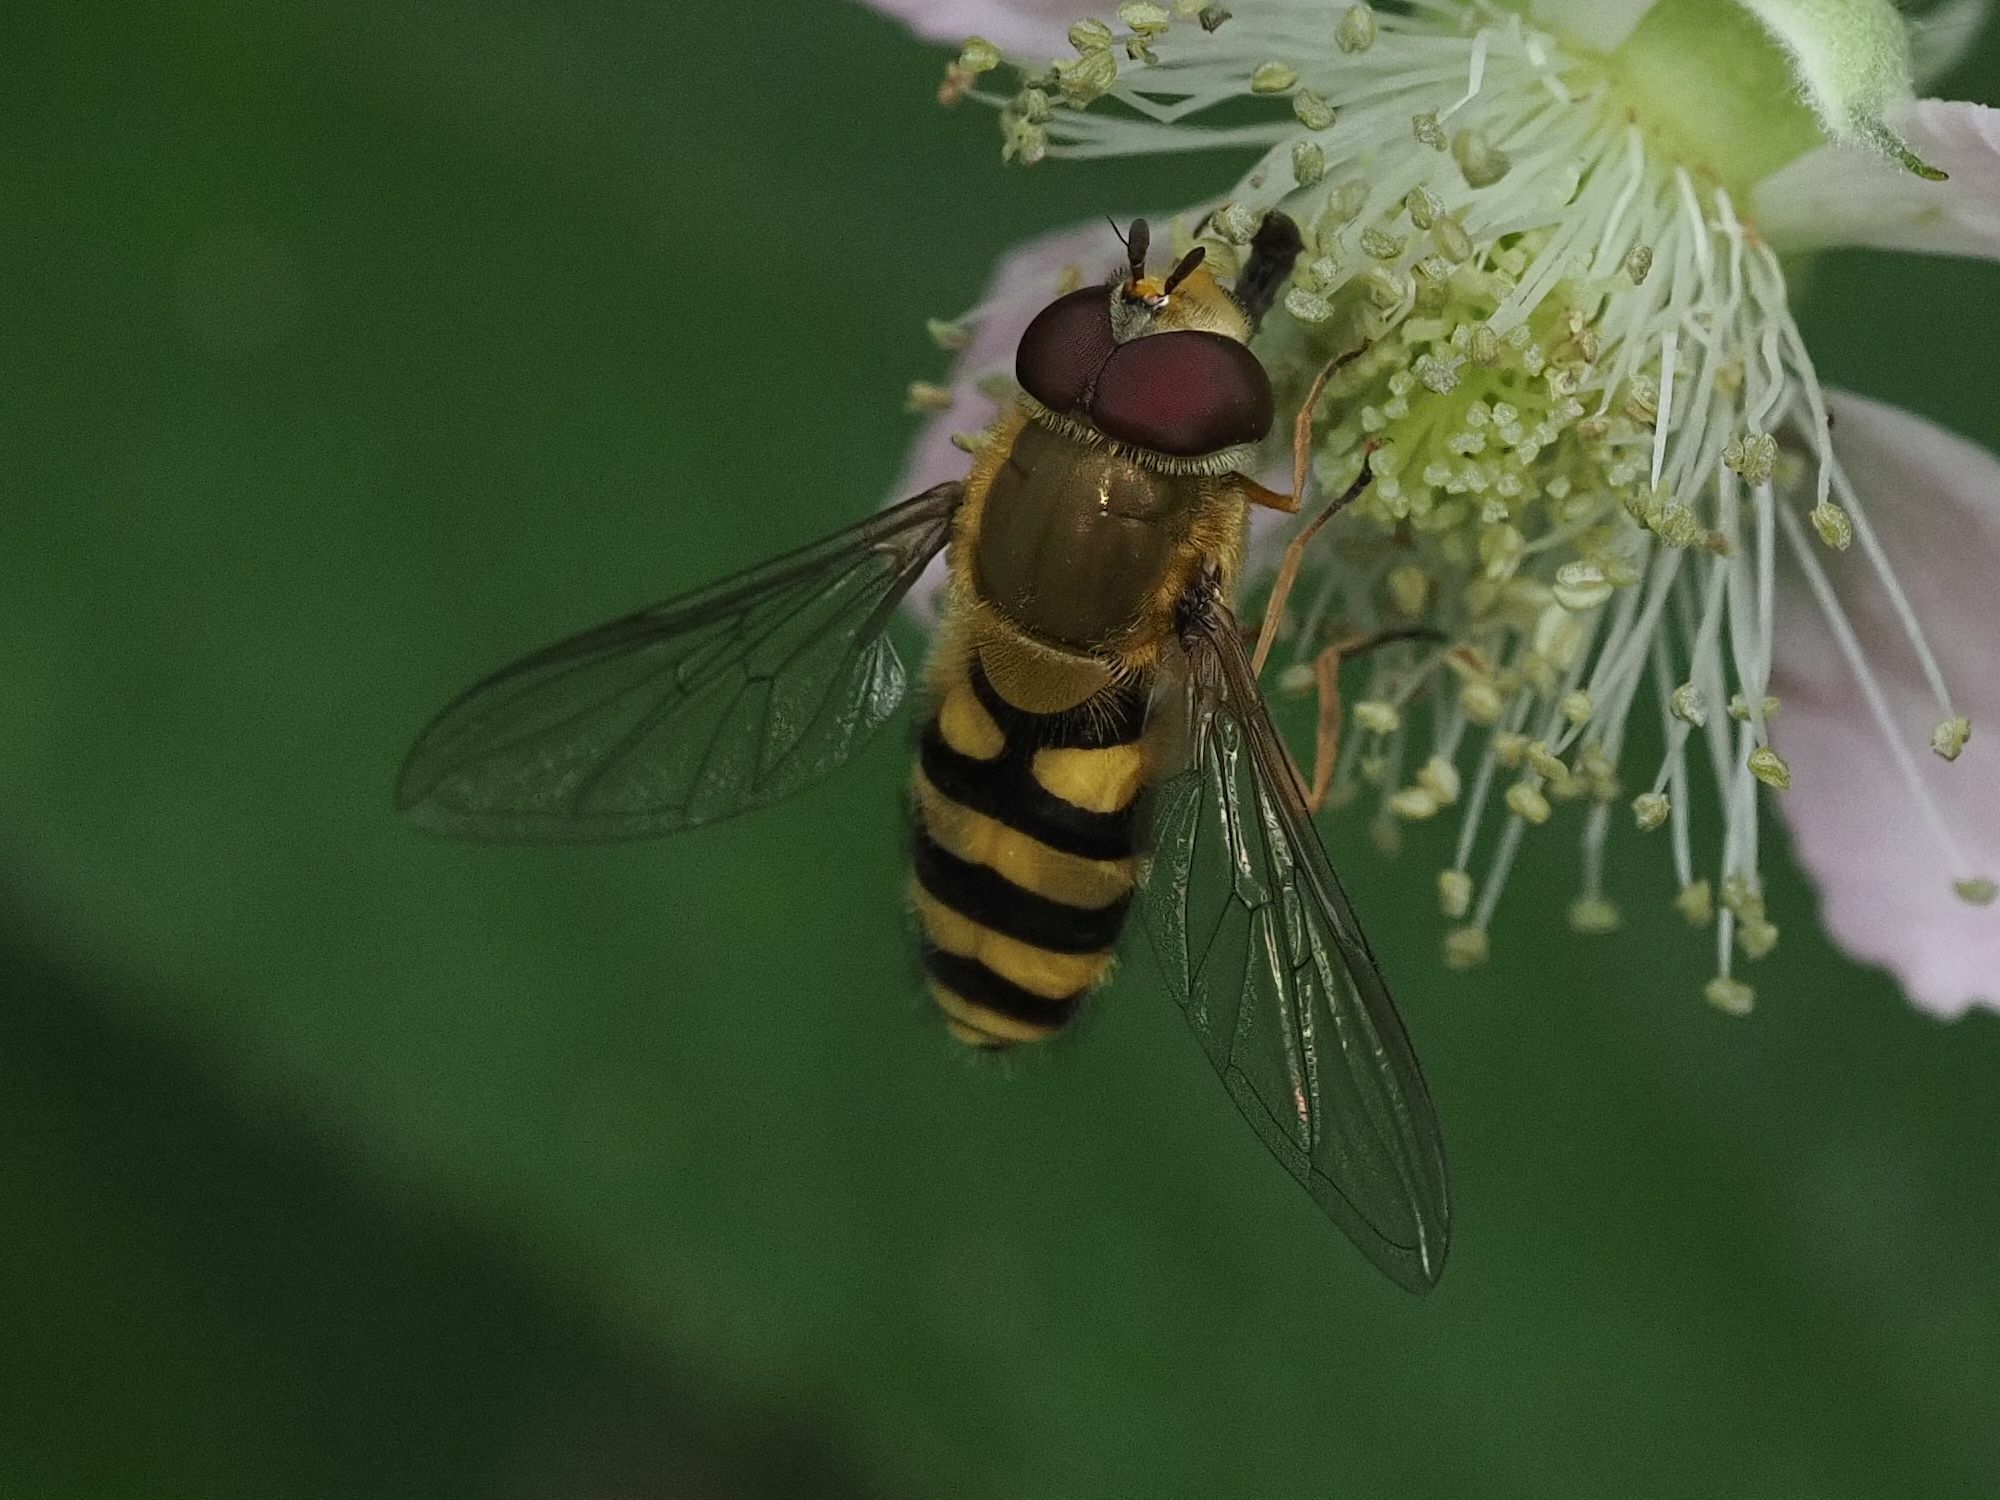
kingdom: Animalia
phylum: Arthropoda
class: Insecta
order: Diptera
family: Syrphidae
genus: Syrphus
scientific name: Syrphus
